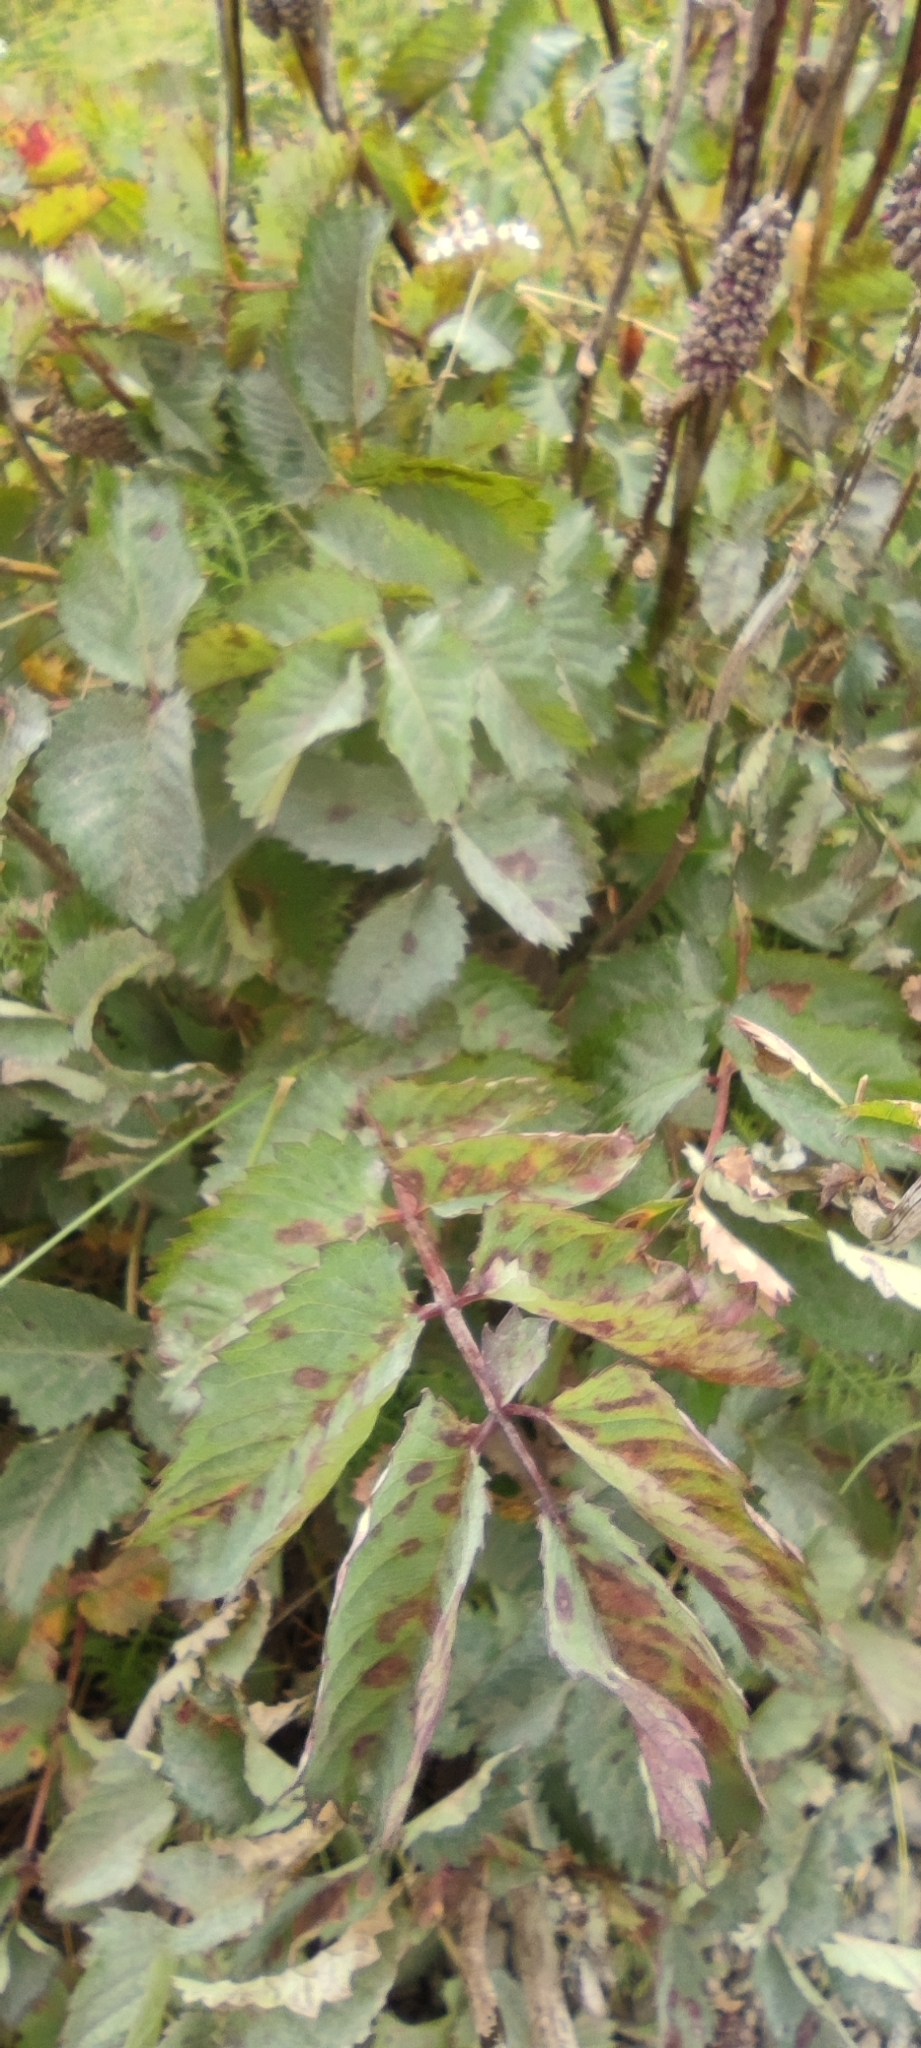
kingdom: Plantae
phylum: Tracheophyta
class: Magnoliopsida
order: Rosales
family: Rosaceae
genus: Sanguisorba
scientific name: Sanguisorba officinalis
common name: Great burnet
